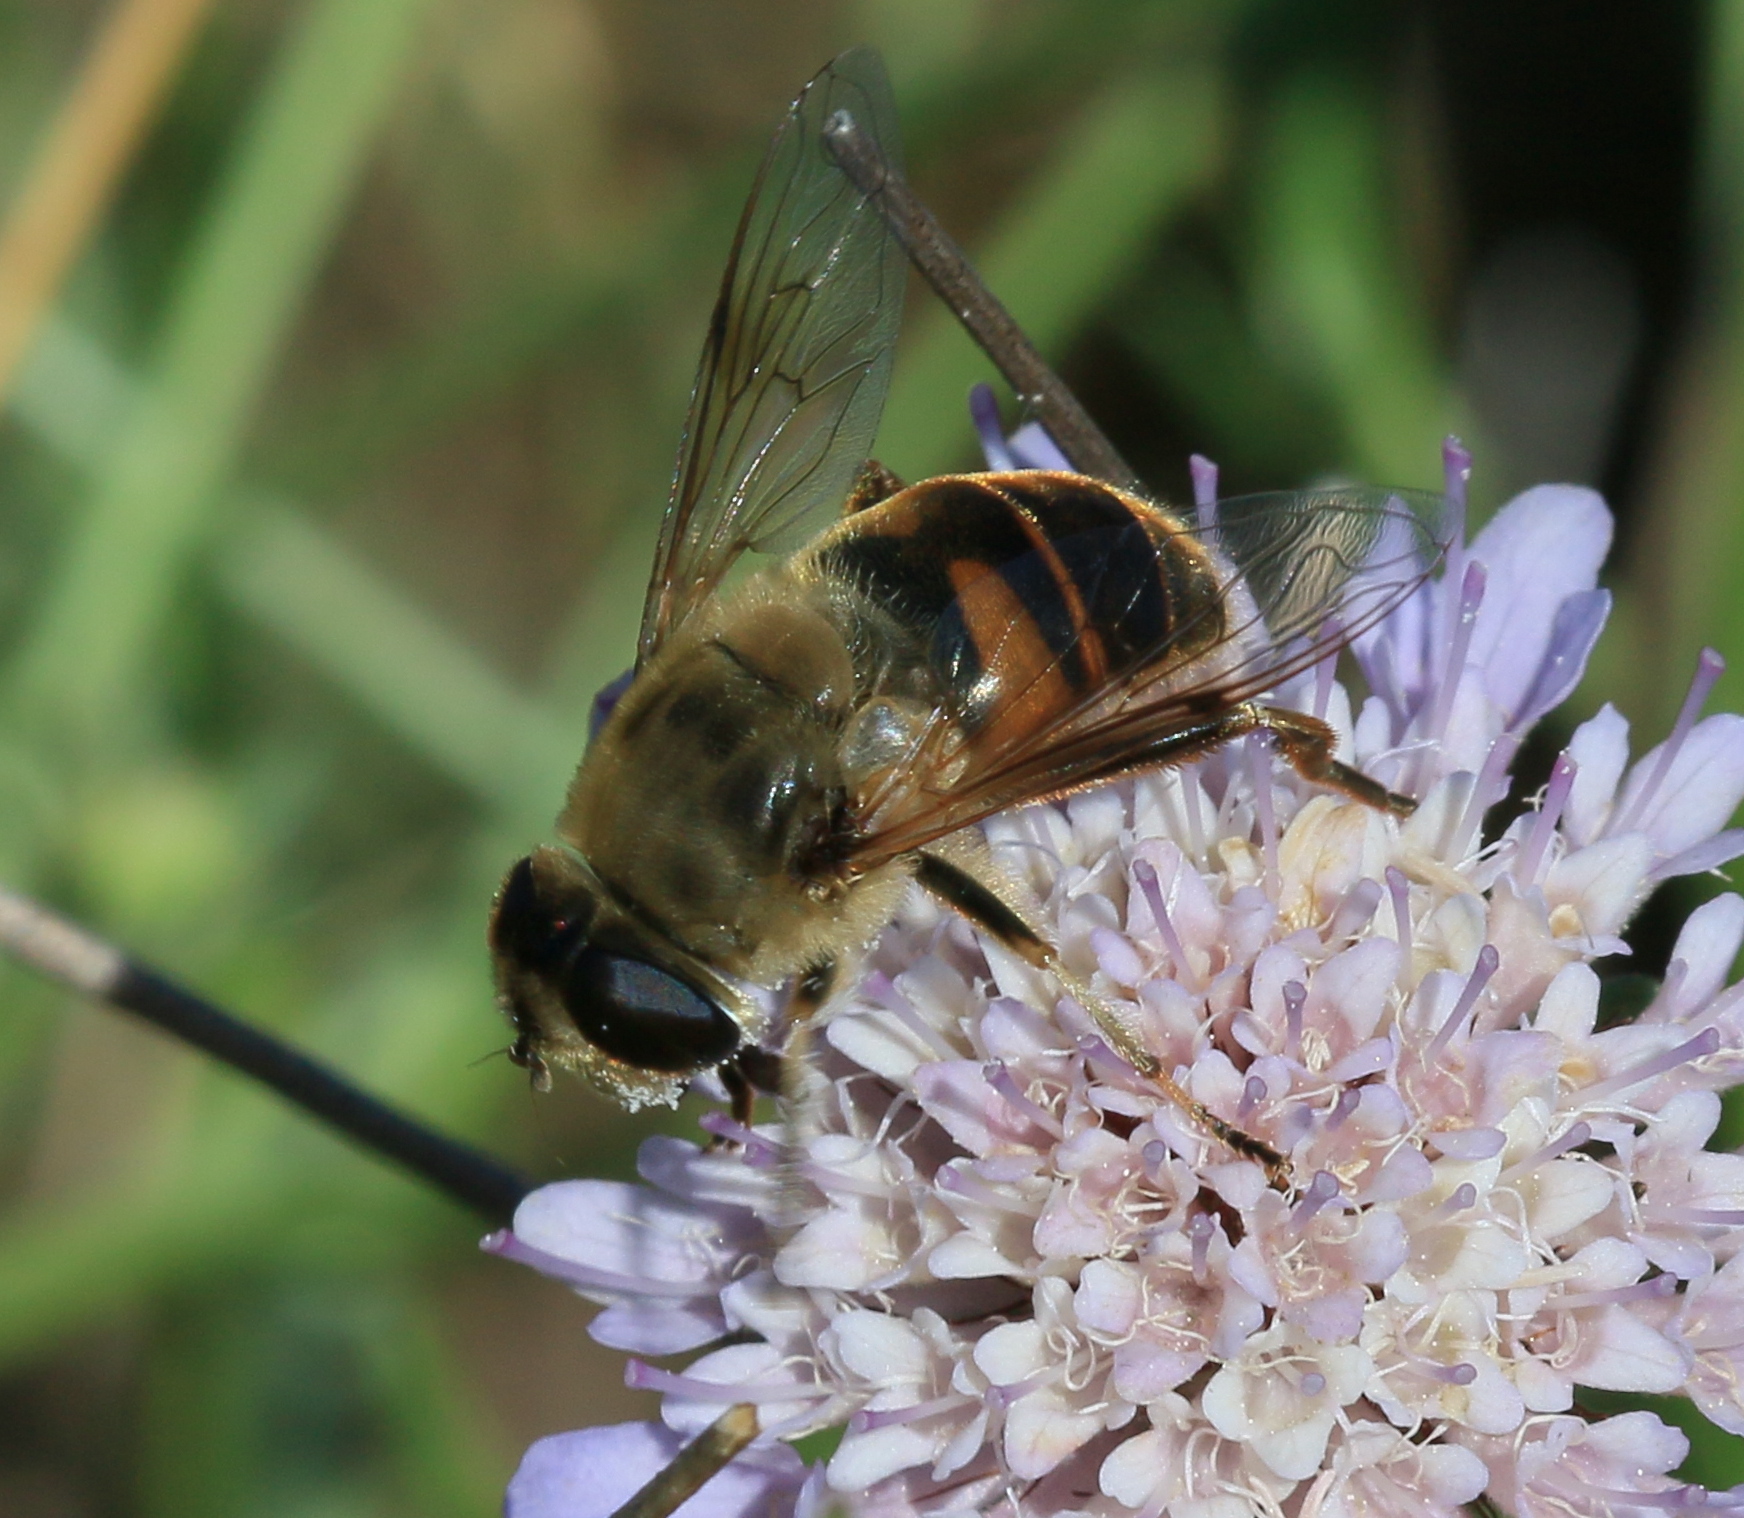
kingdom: Animalia
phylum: Arthropoda
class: Insecta
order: Diptera
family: Syrphidae
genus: Eristalis
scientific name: Eristalis tenax
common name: Drone fly
